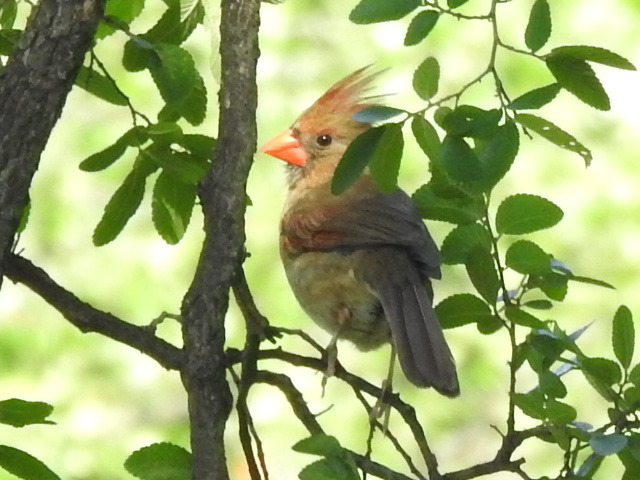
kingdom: Animalia
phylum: Chordata
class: Aves
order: Passeriformes
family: Cardinalidae
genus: Cardinalis
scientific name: Cardinalis cardinalis
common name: Northern cardinal
